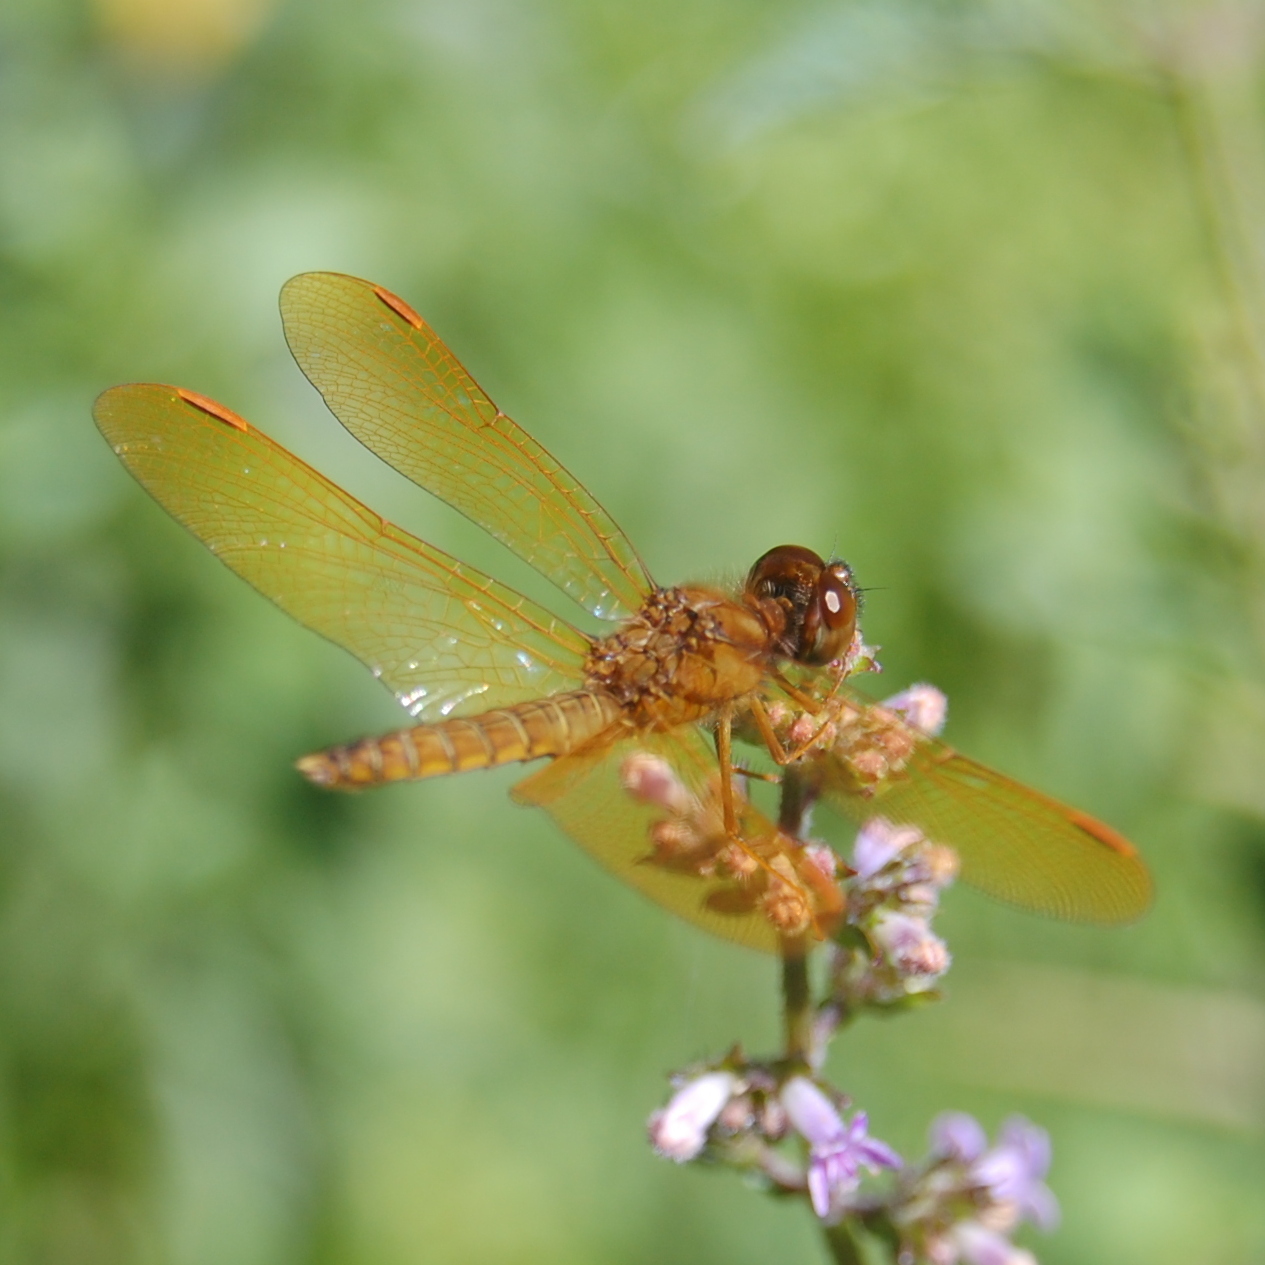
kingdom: Animalia
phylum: Arthropoda
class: Insecta
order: Odonata
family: Libellulidae
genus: Perithemis
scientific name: Perithemis tenera
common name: Eastern amberwing
